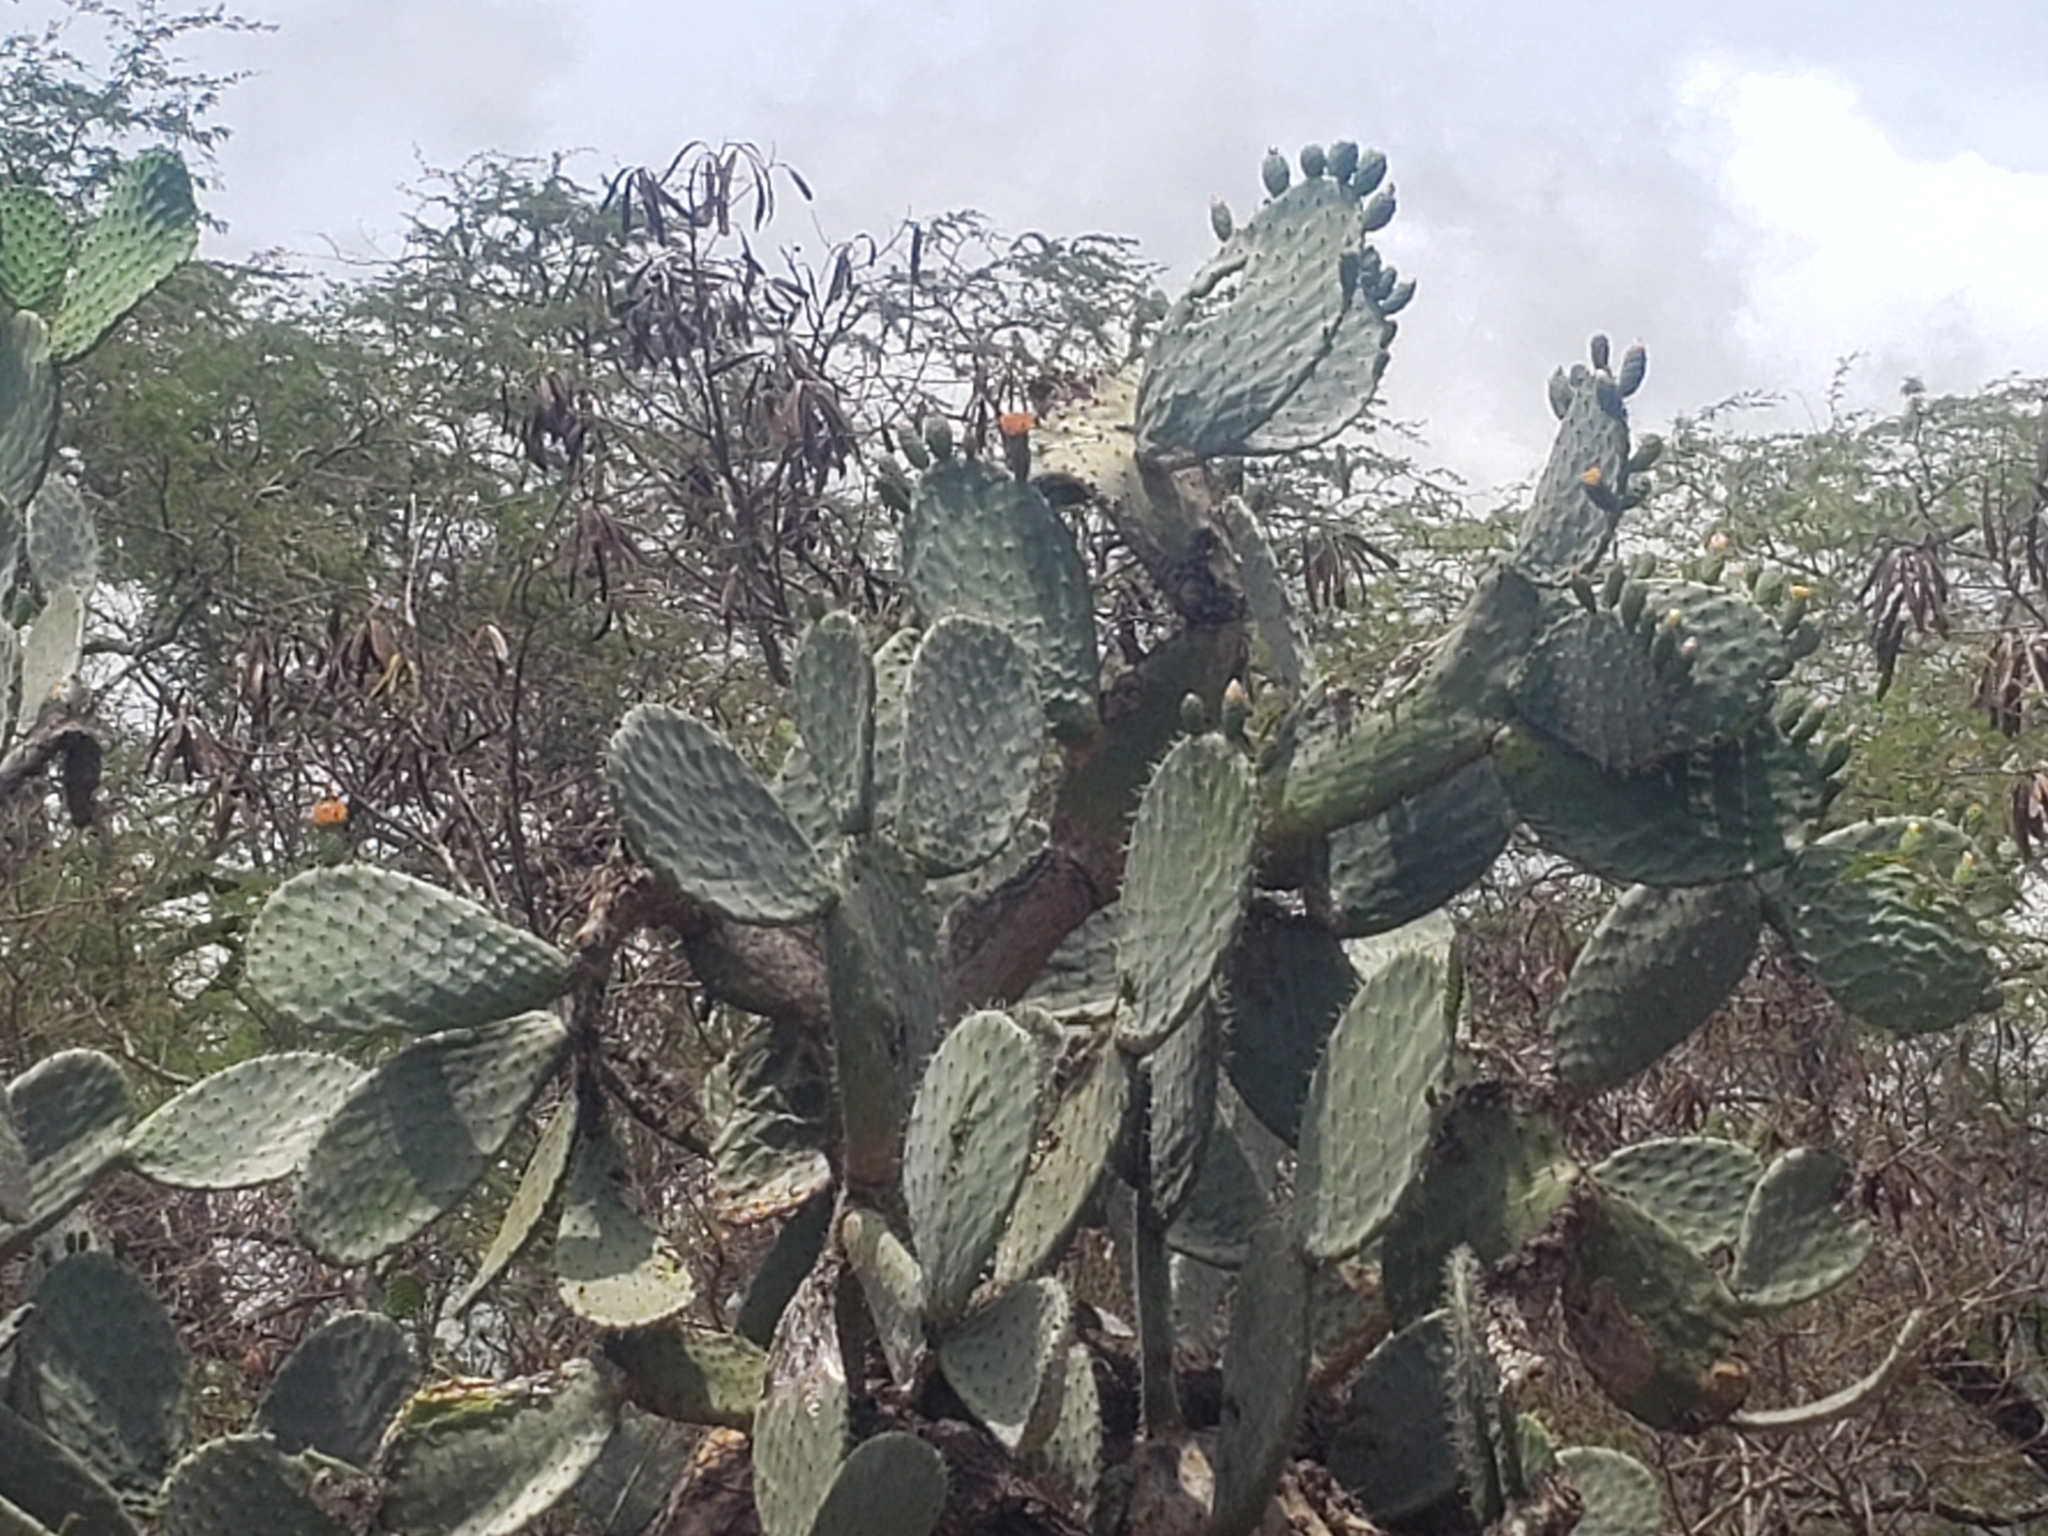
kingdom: Plantae
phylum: Tracheophyta
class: Magnoliopsida
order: Caryophyllales
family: Cactaceae
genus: Opuntia
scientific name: Opuntia ficus-indica
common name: Barbary fig
